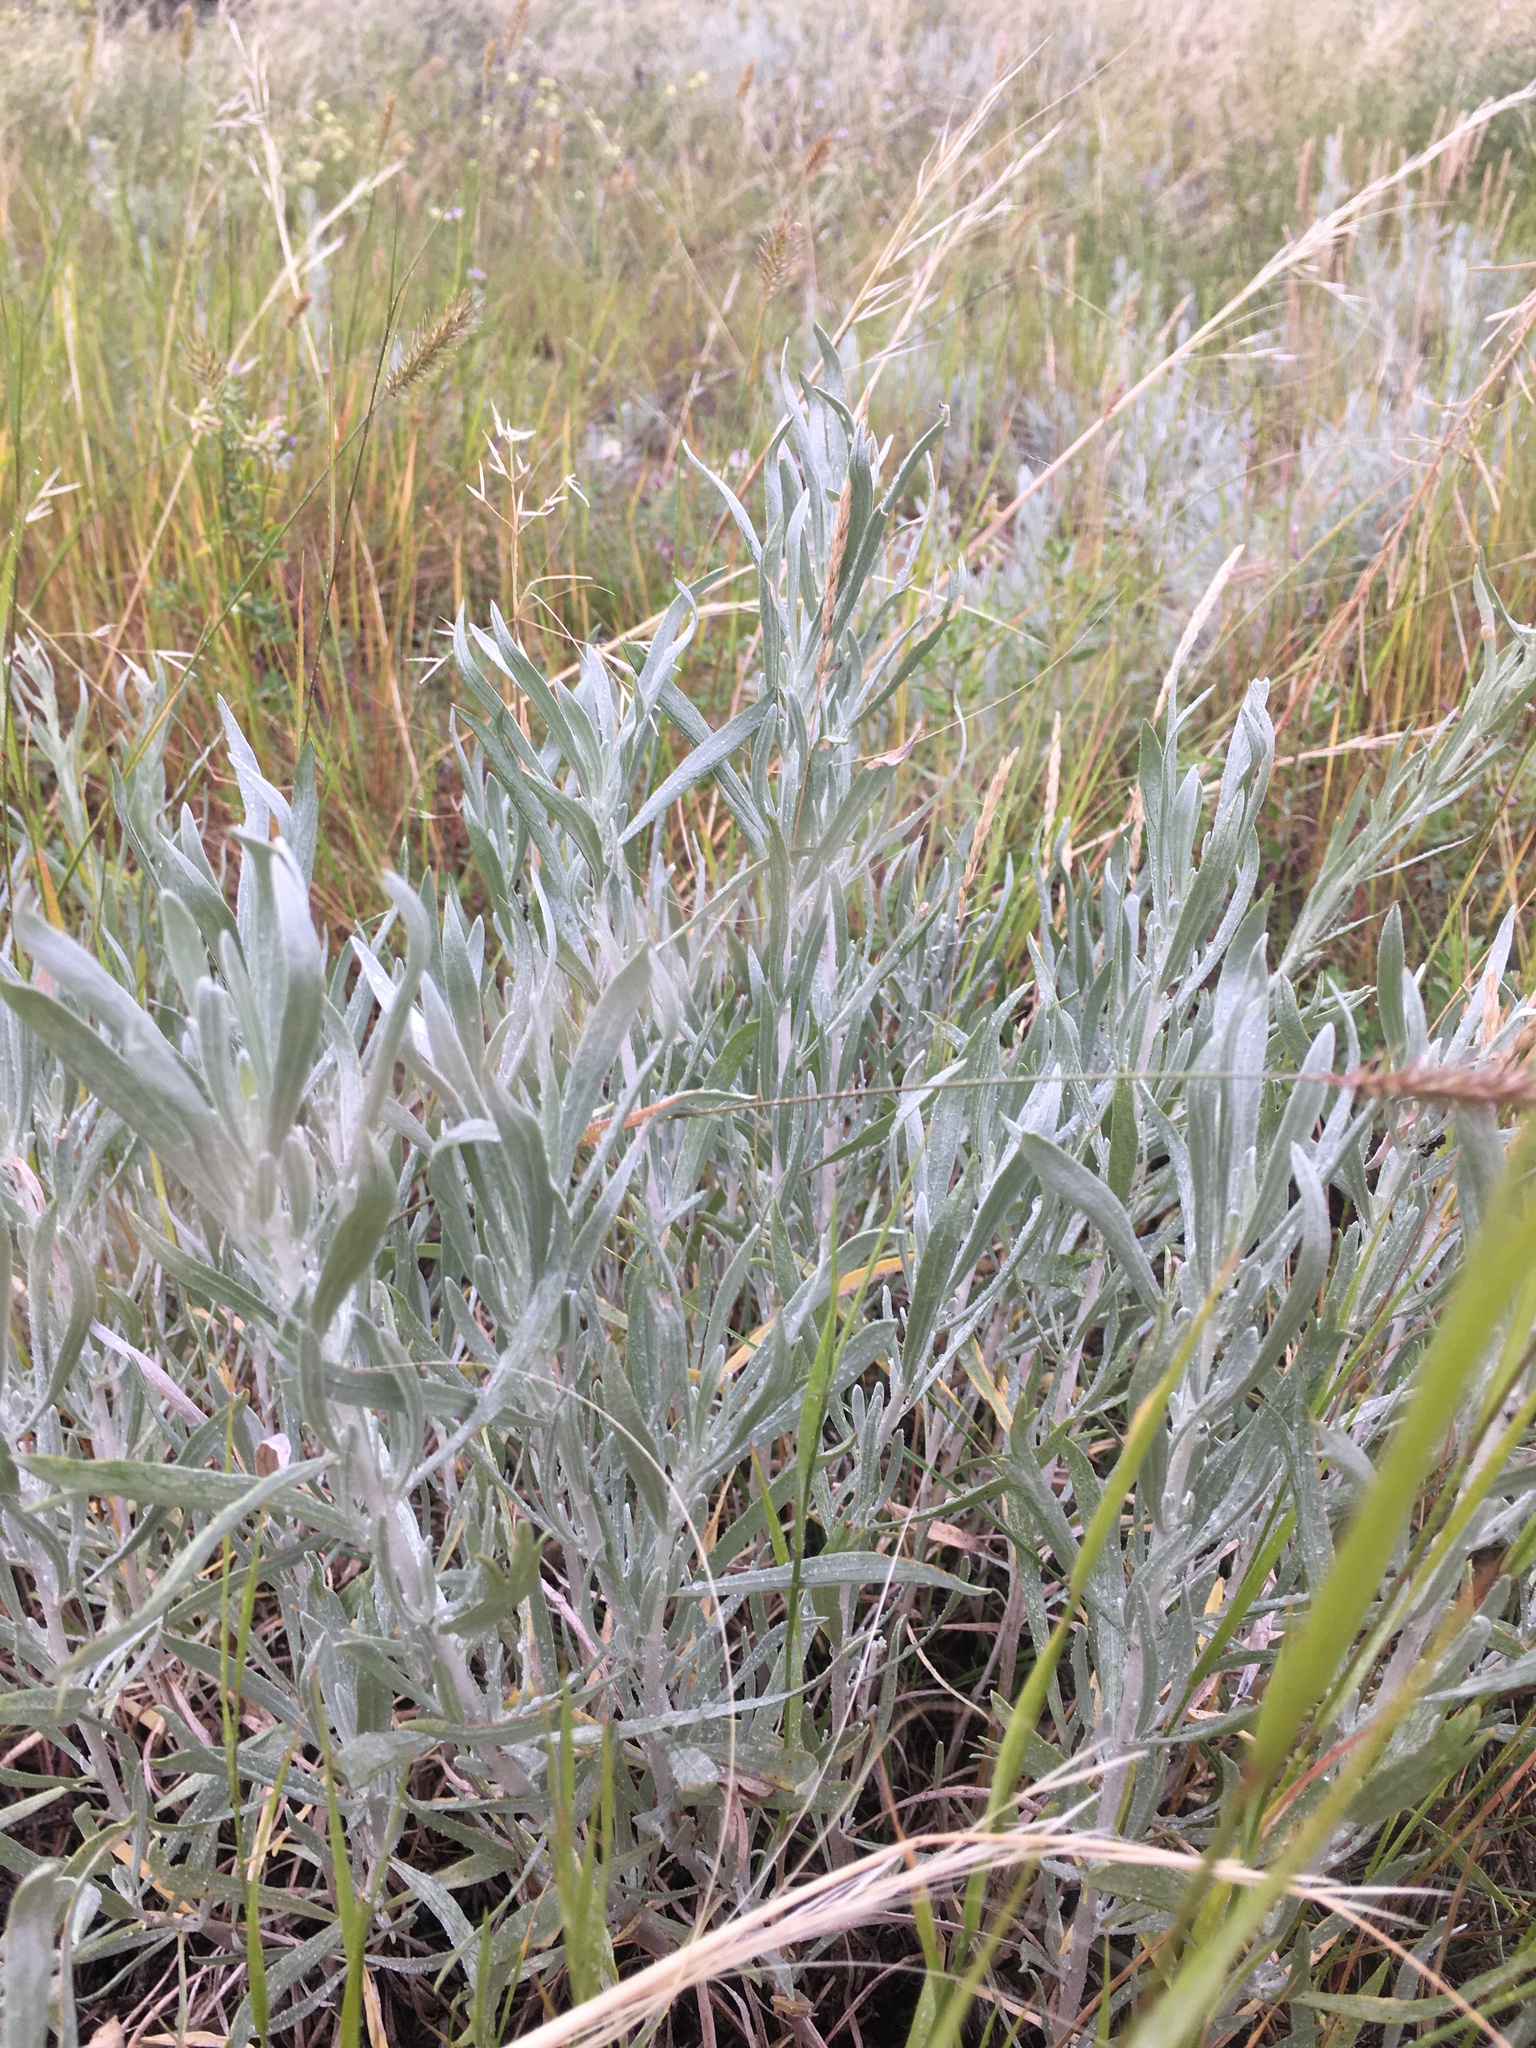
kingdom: Plantae
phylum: Tracheophyta
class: Magnoliopsida
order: Asterales
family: Asteraceae
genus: Artemisia
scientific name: Artemisia cana
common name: Silver sagebrush
